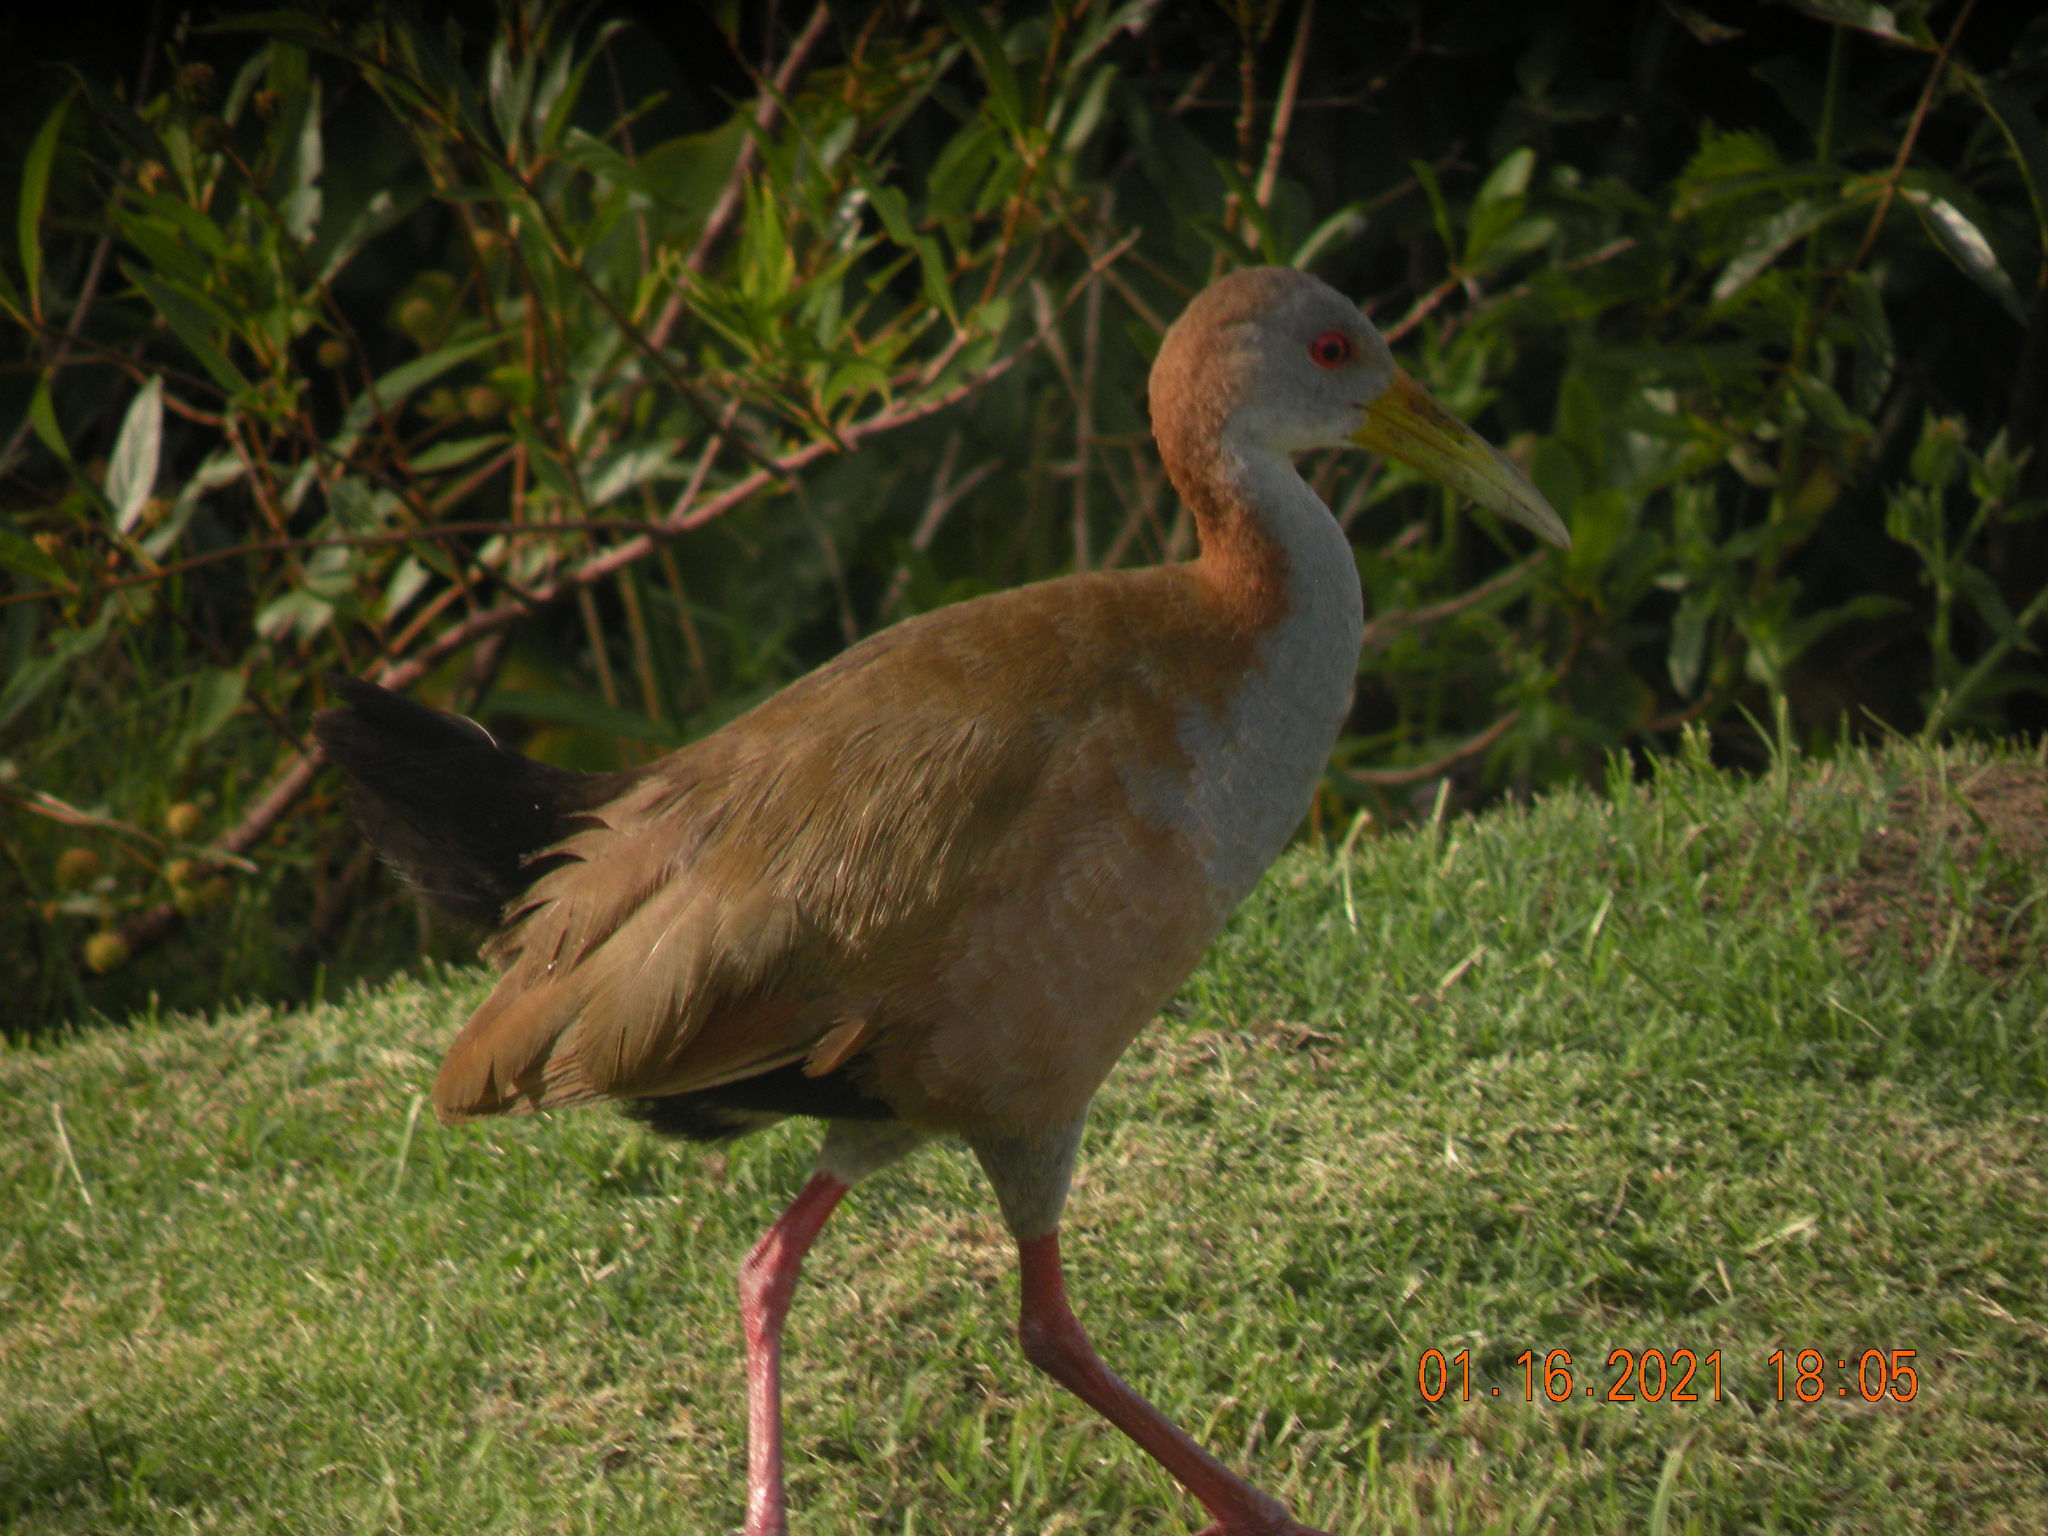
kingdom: Animalia
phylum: Chordata
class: Aves
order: Gruiformes
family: Rallidae
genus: Aramides
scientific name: Aramides ypecaha
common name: Giant wood rail
